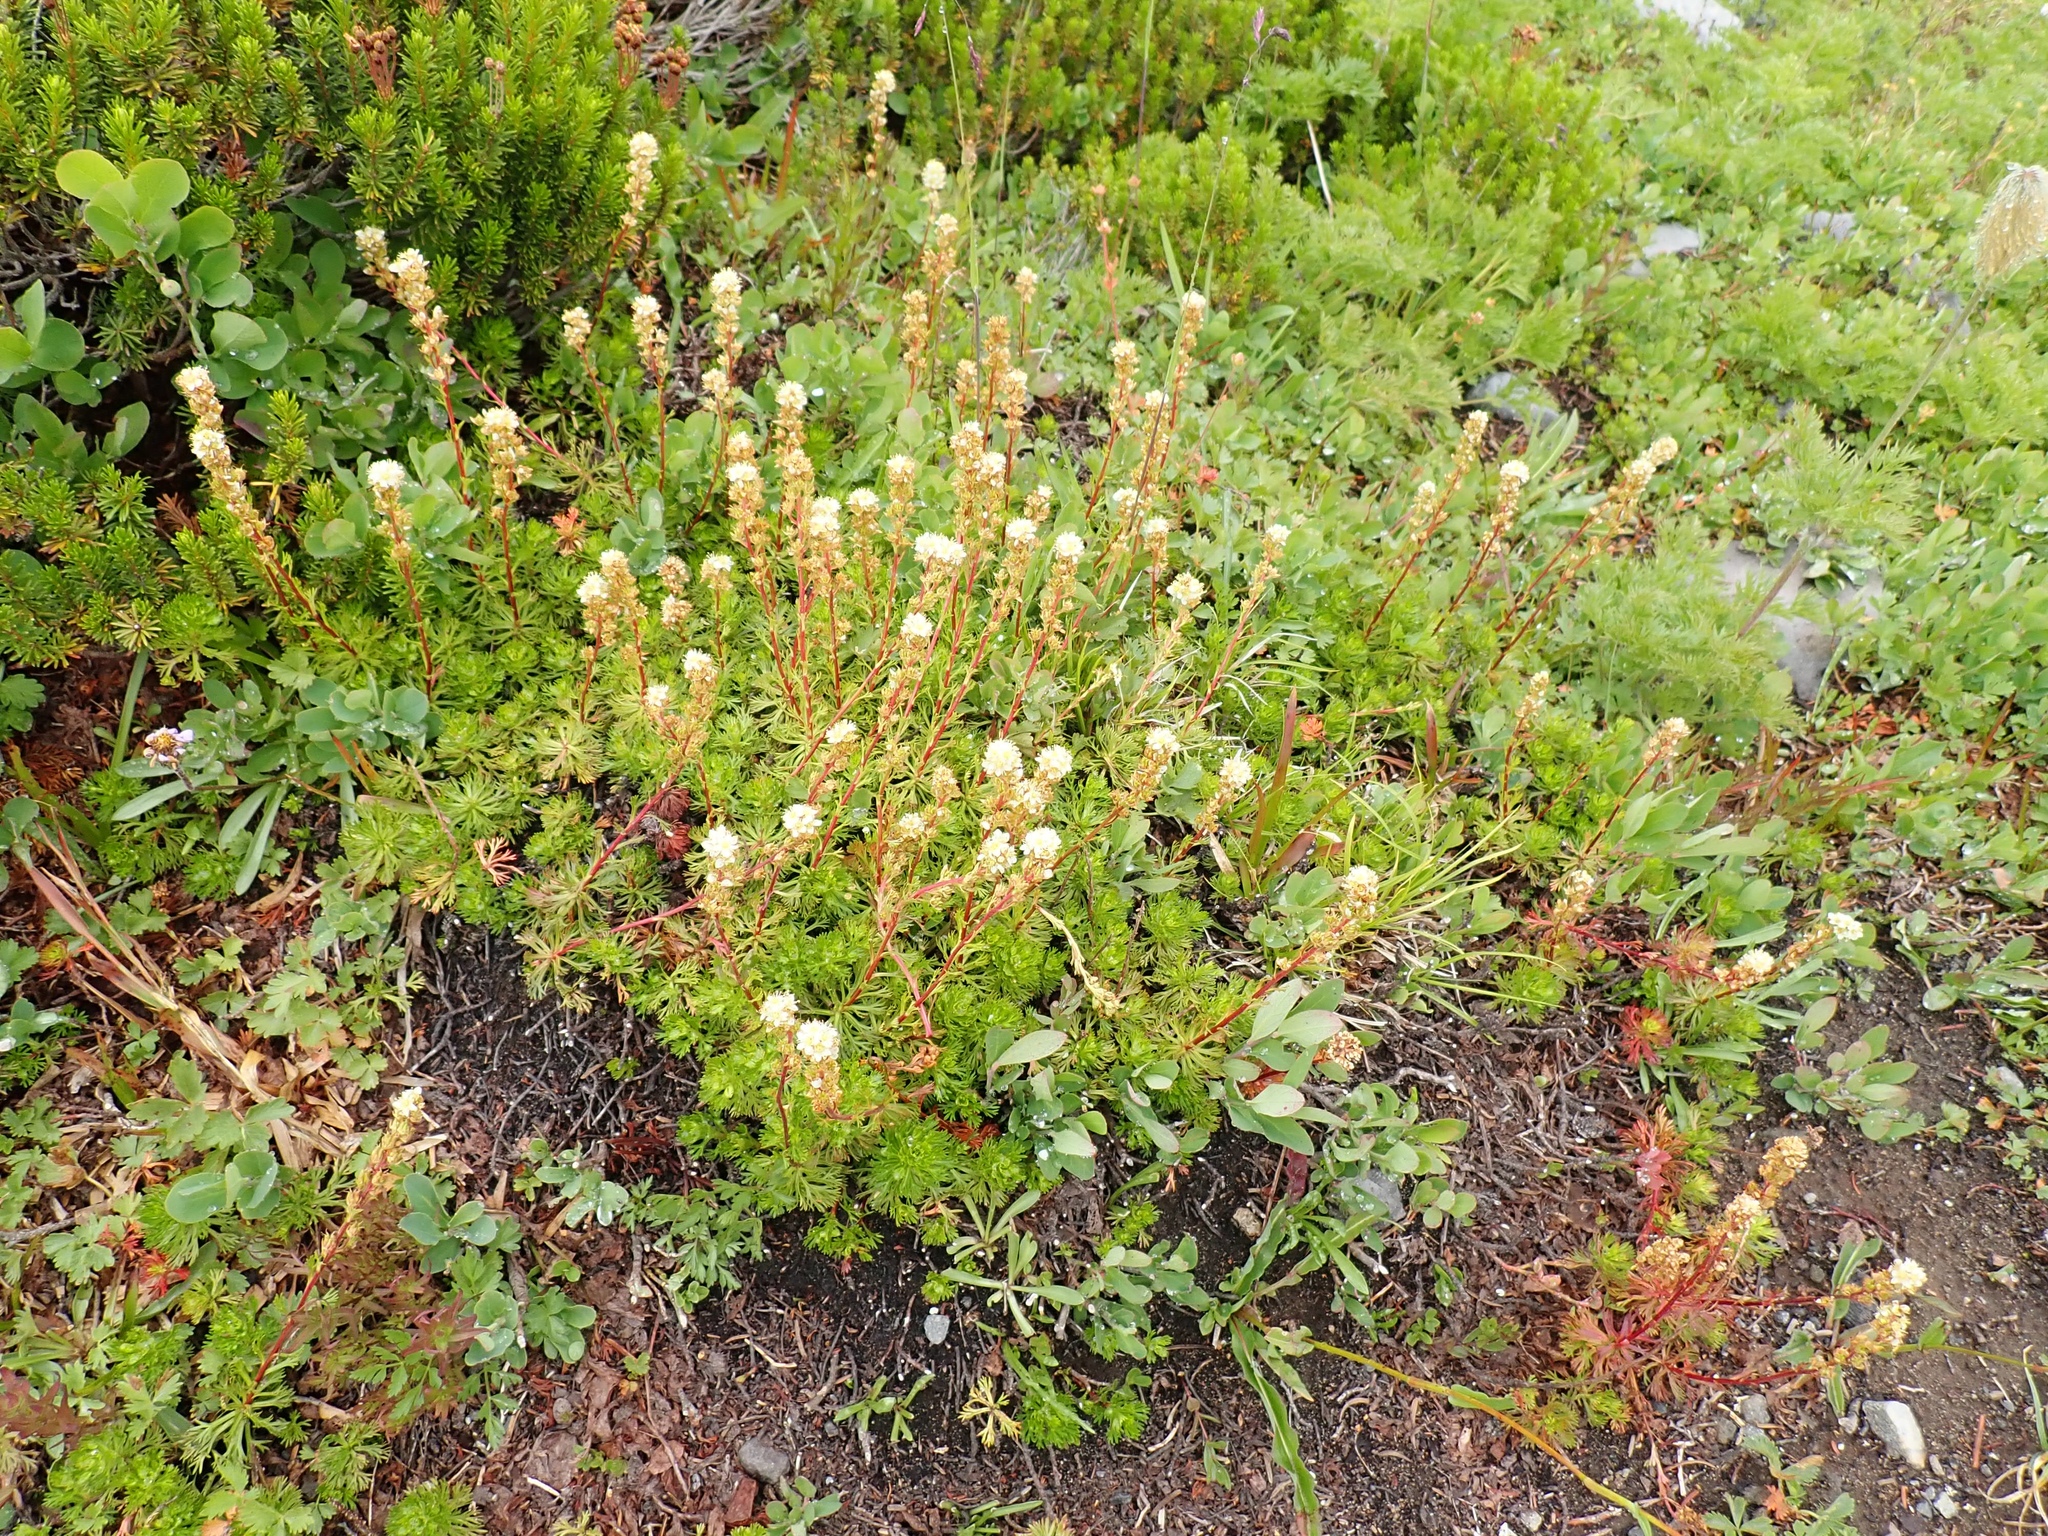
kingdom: Plantae
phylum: Tracheophyta
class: Magnoliopsida
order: Rosales
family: Rosaceae
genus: Luetkea
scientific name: Luetkea pectinata
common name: Partridgefoot
